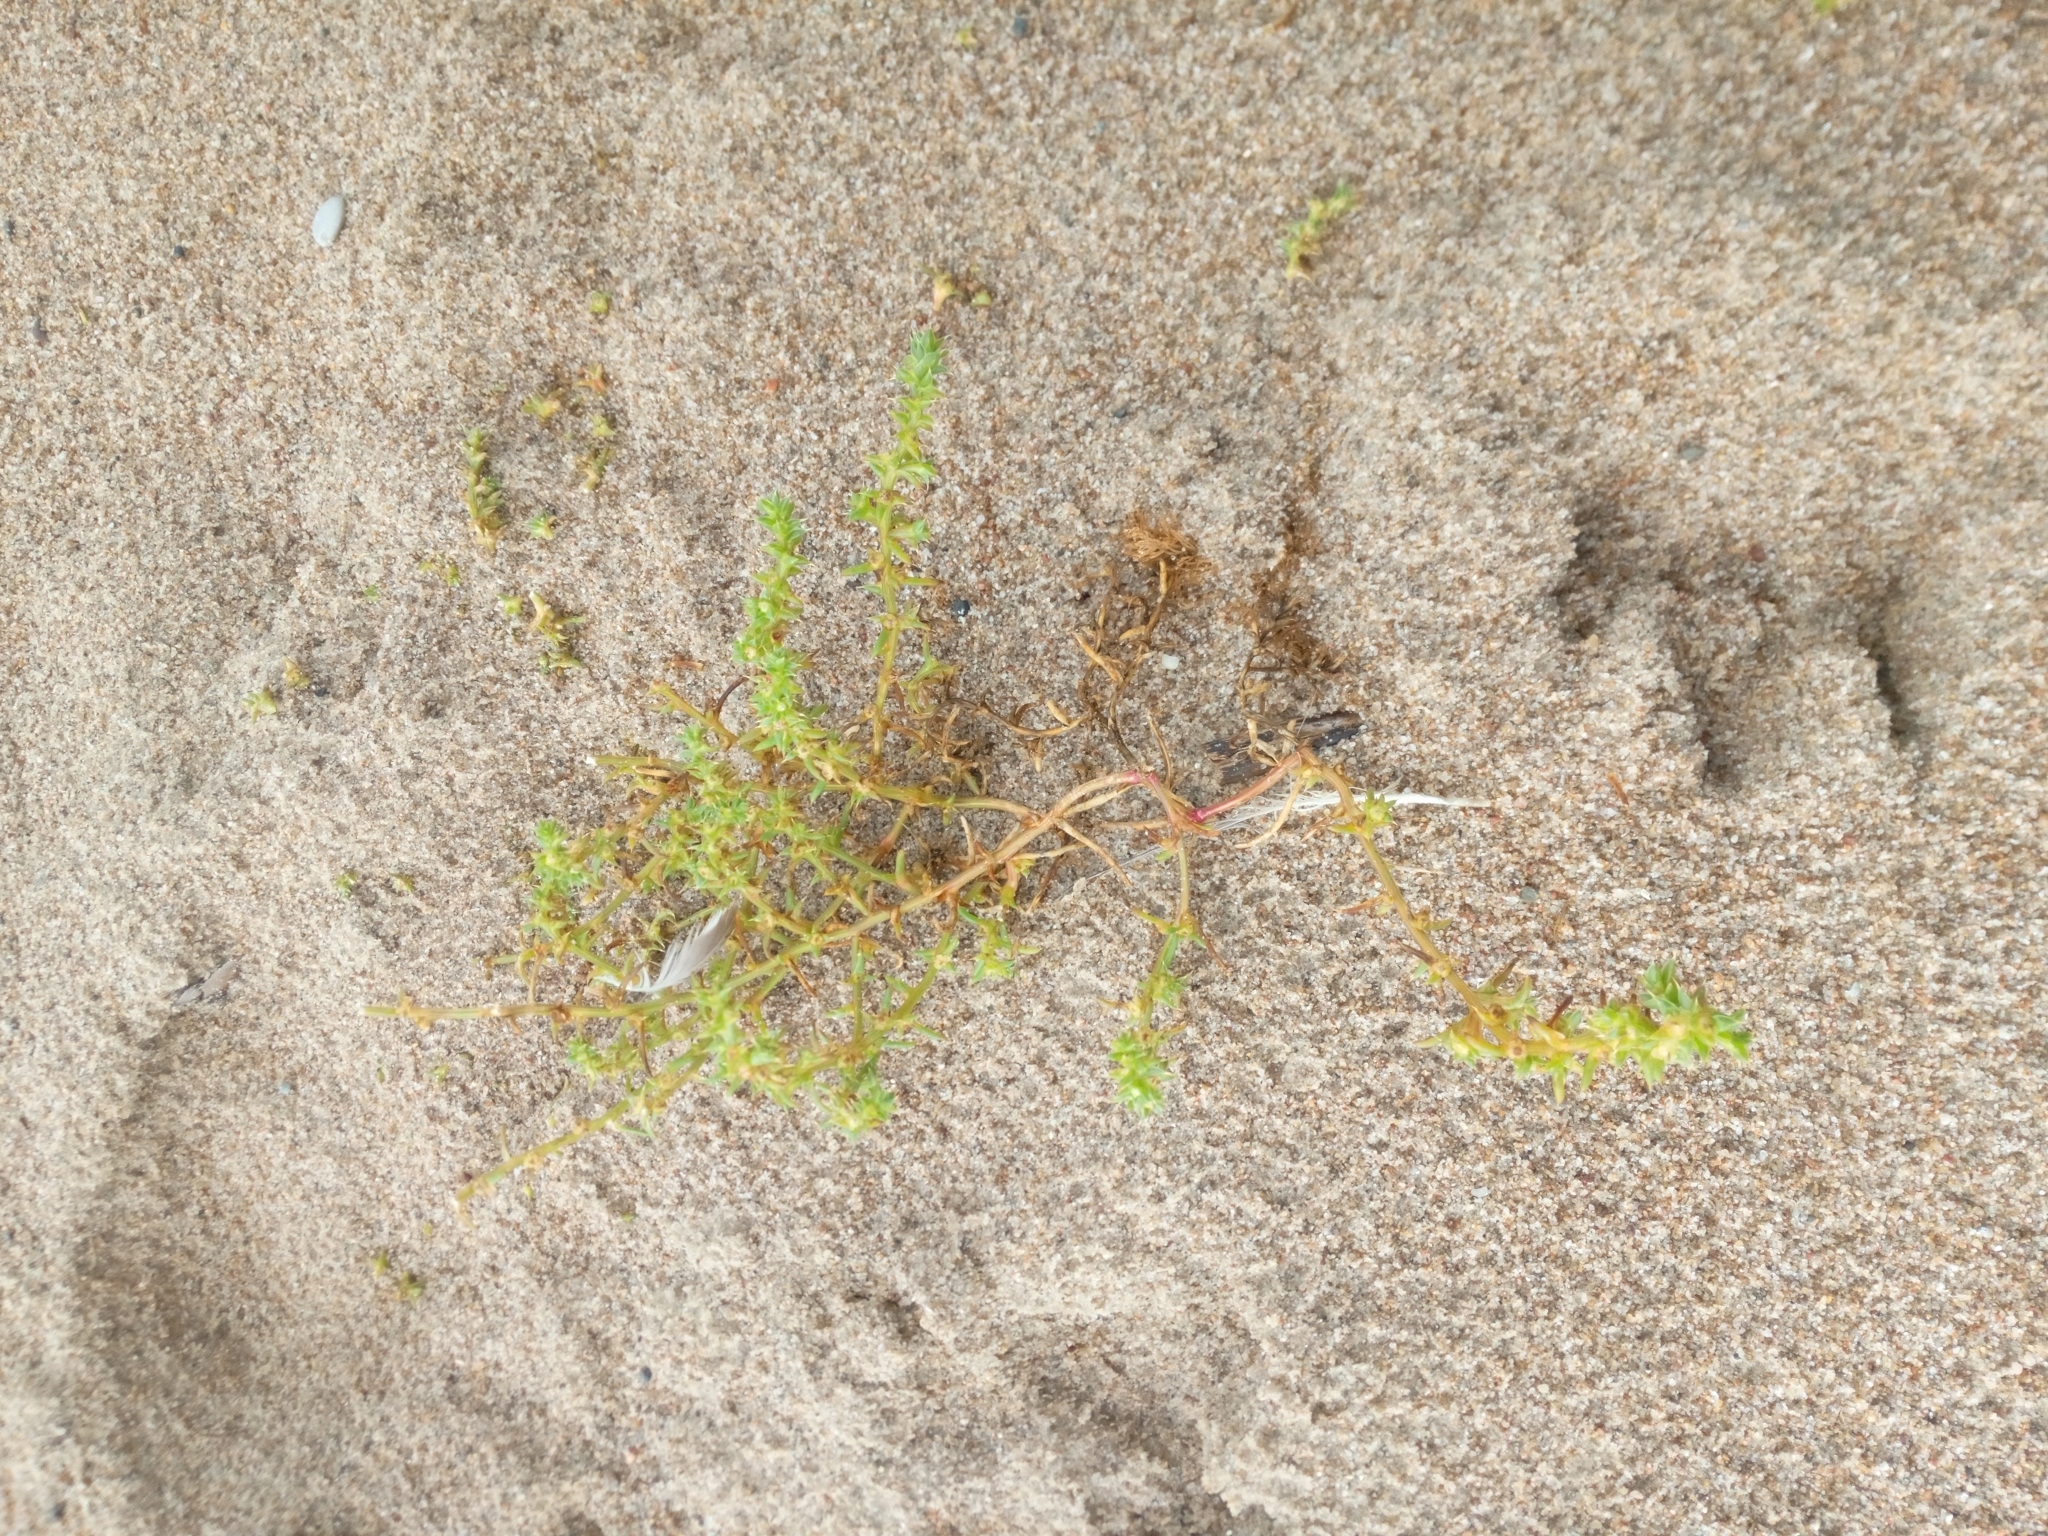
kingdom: Plantae
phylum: Tracheophyta
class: Magnoliopsida
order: Caryophyllales
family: Amaranthaceae
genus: Salsola
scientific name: Salsola kali
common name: Saltwort
